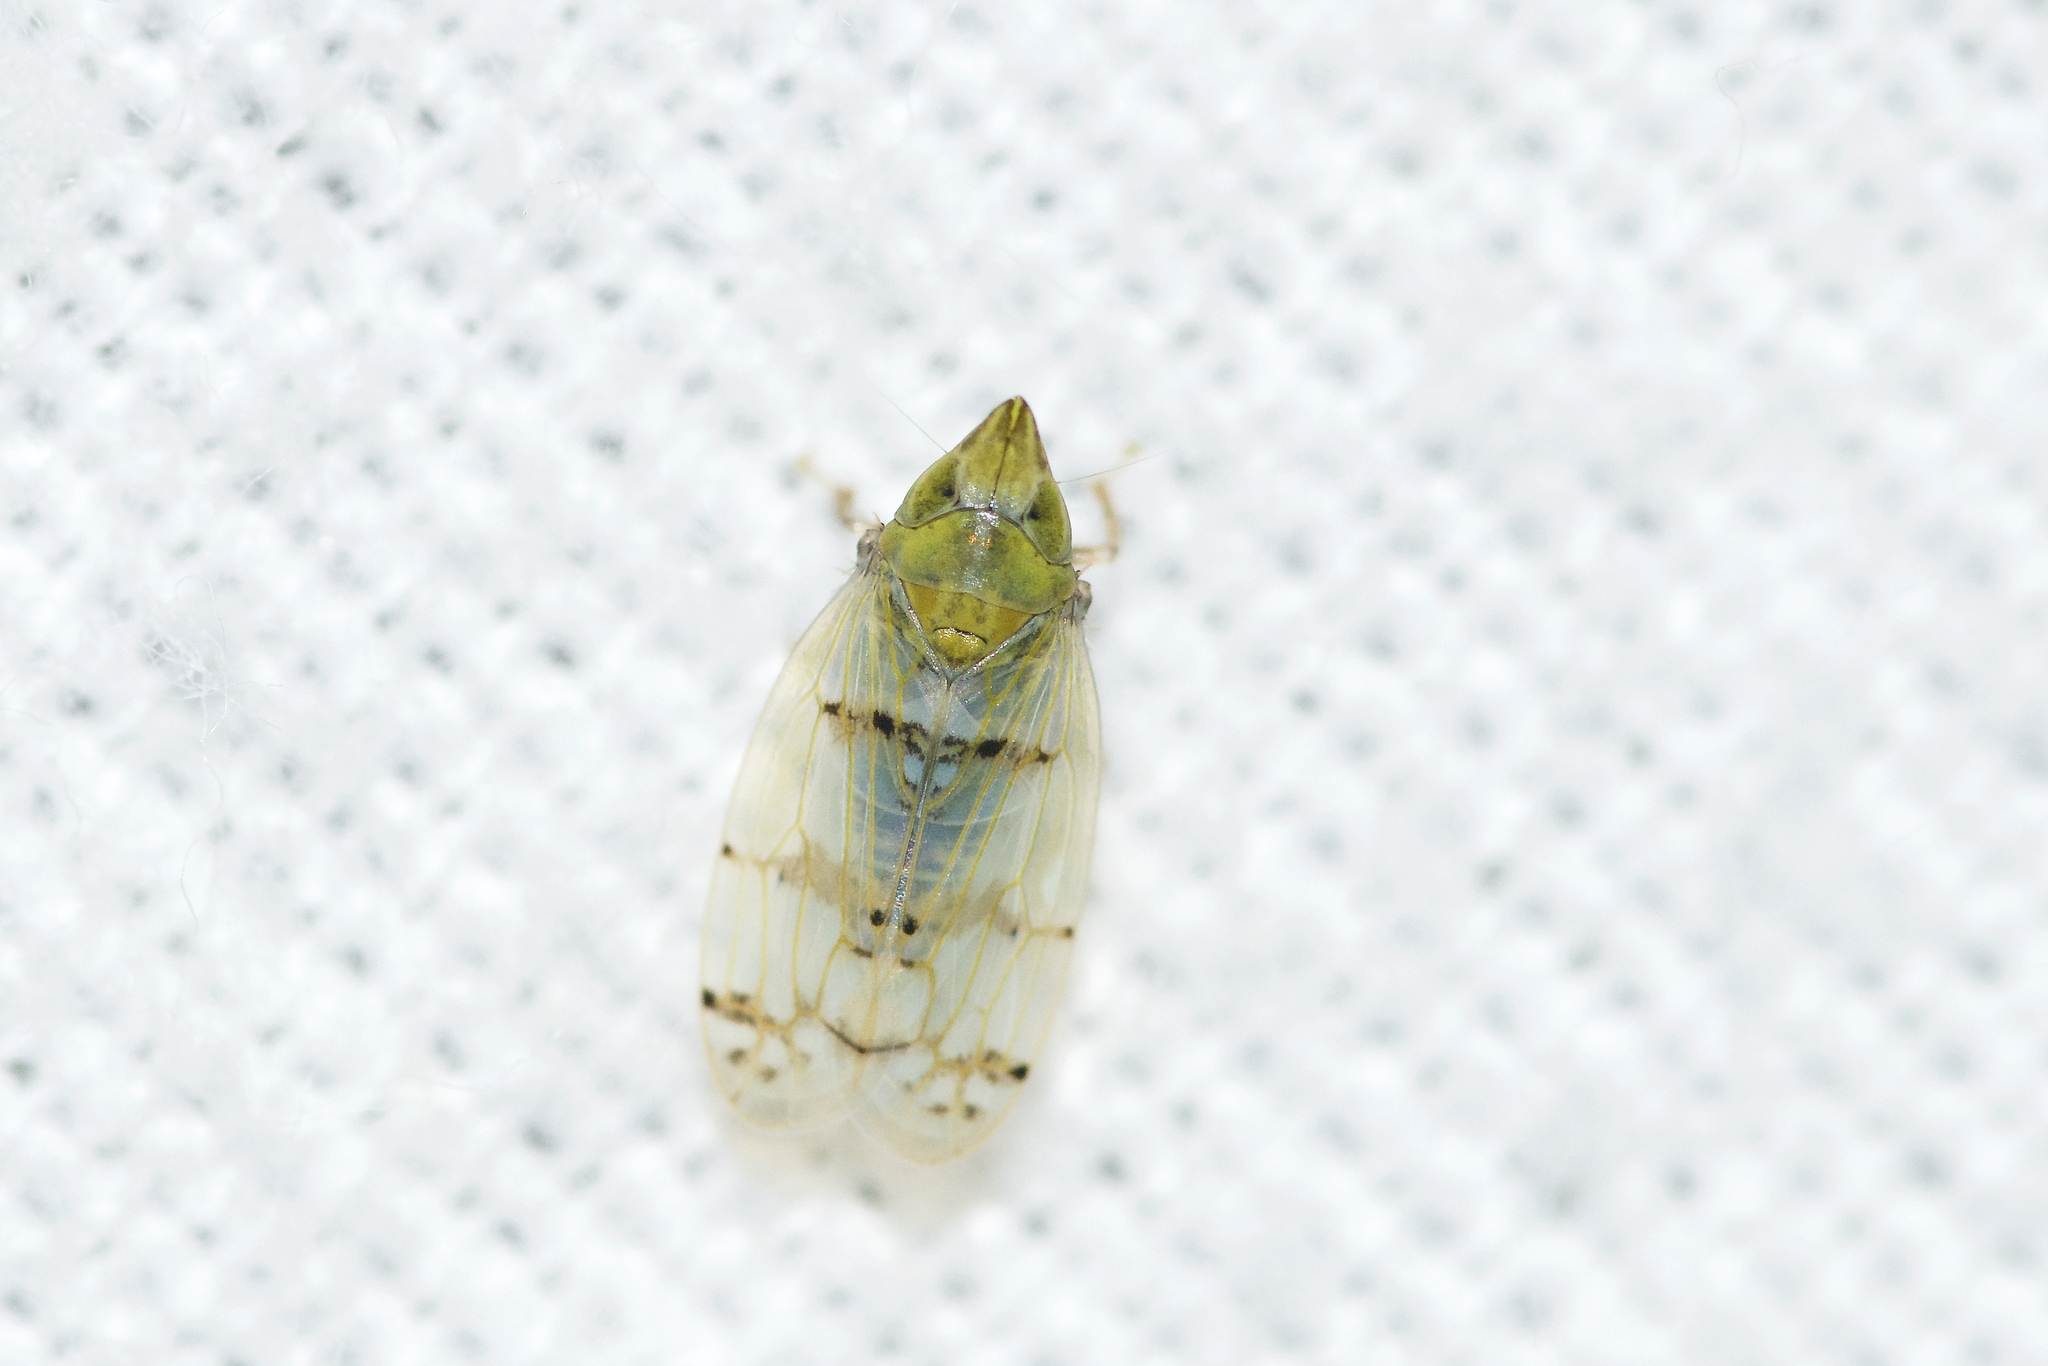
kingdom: Animalia
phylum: Arthropoda
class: Insecta
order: Hemiptera
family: Cicadellidae
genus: Japananus
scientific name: Japananus hyalinus
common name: The japanese maple leafhopper
